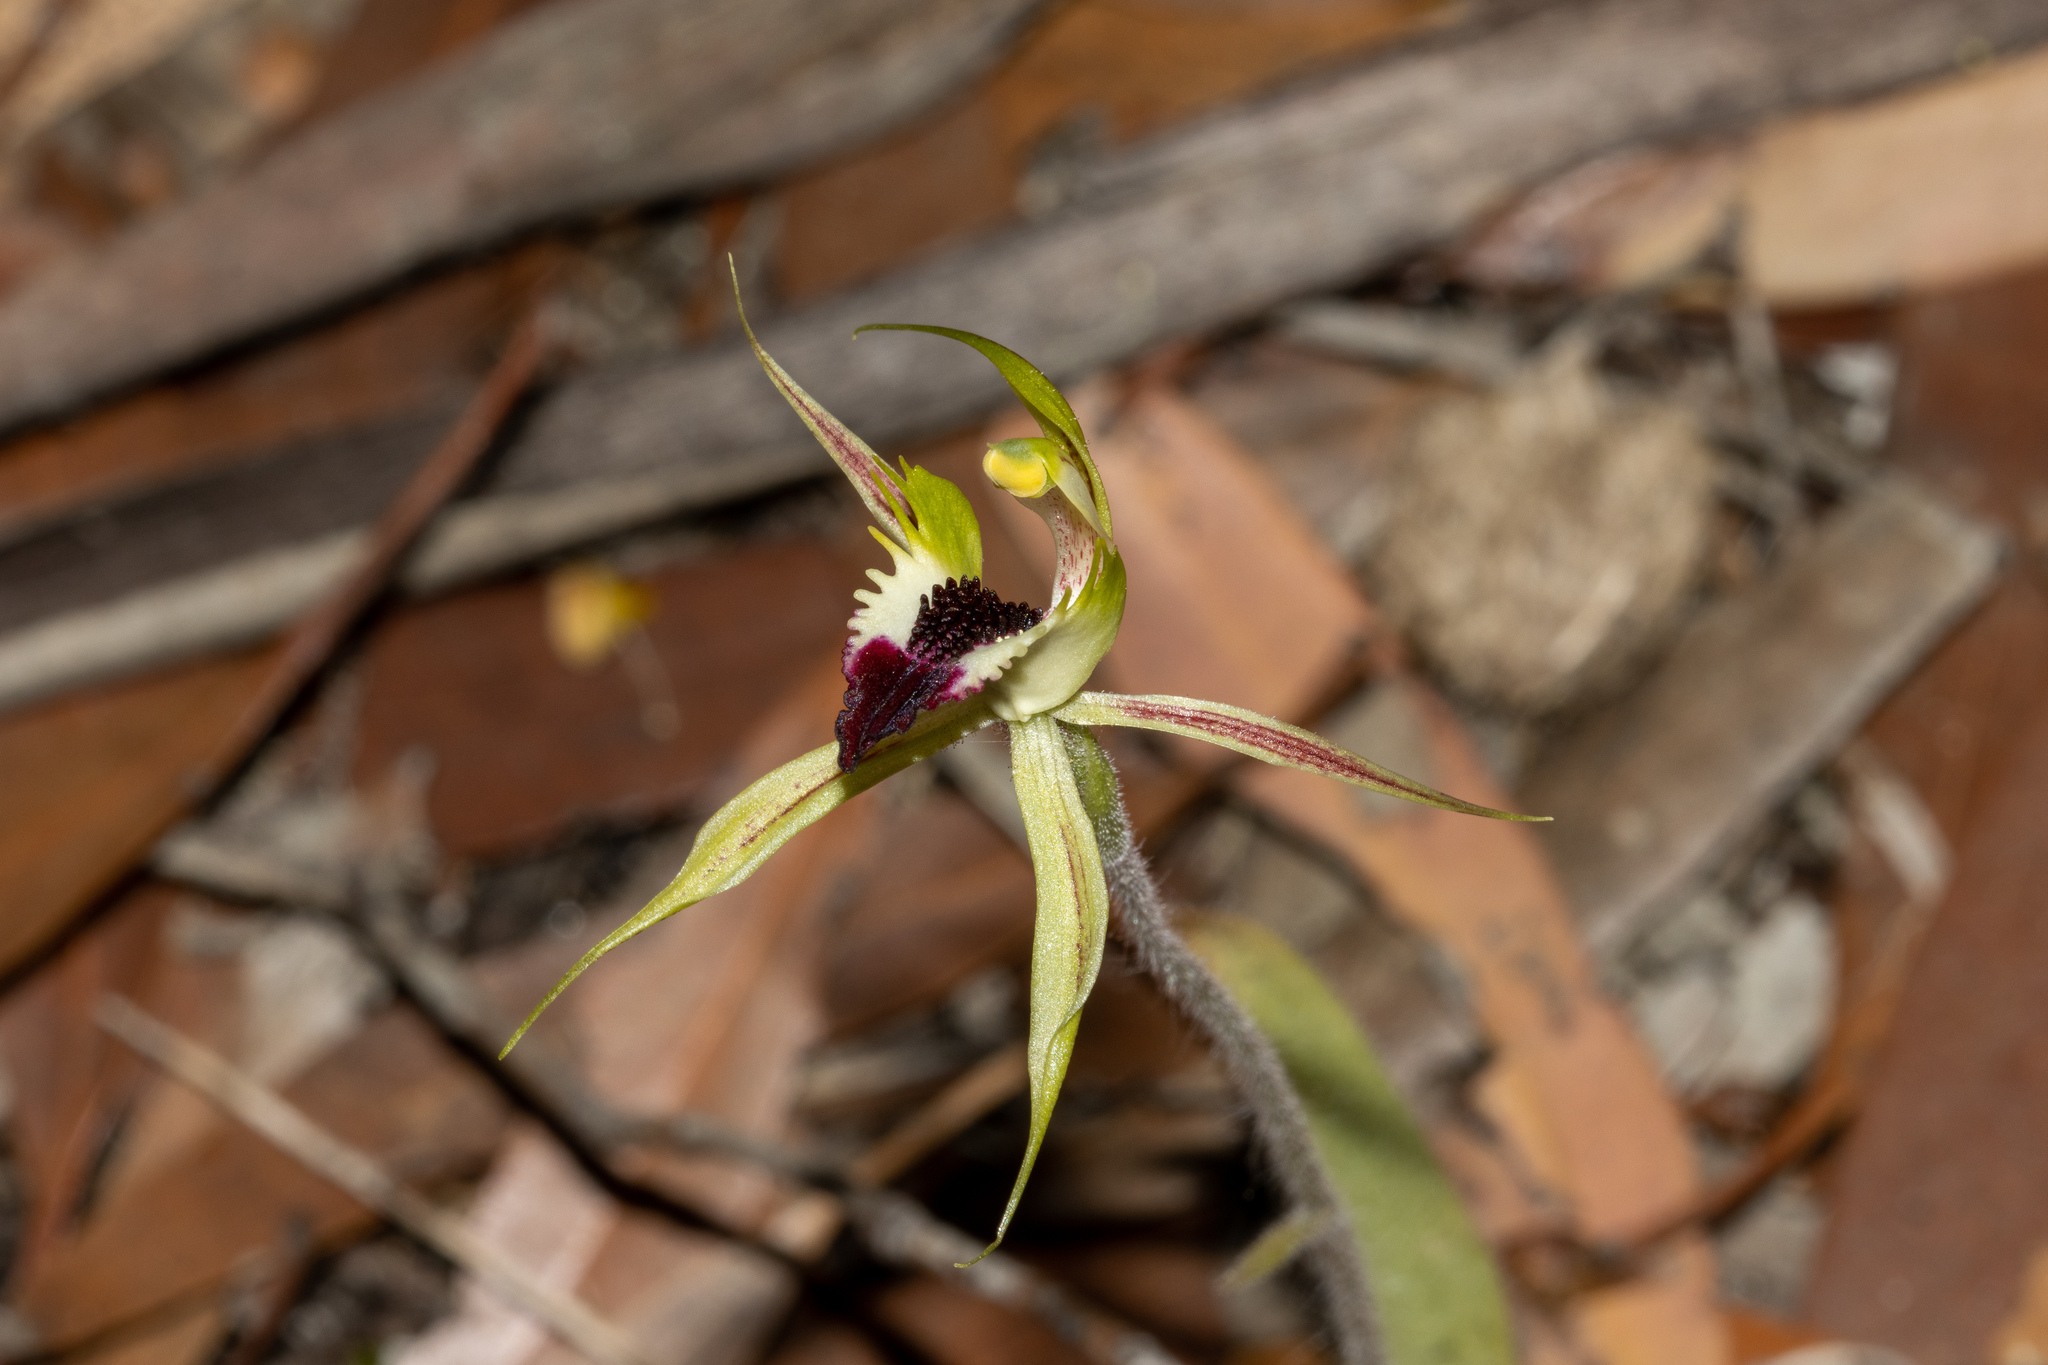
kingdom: Plantae
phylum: Tracheophyta
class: Liliopsida
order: Asparagales
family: Orchidaceae
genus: Caladenia
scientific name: Caladenia stricta
